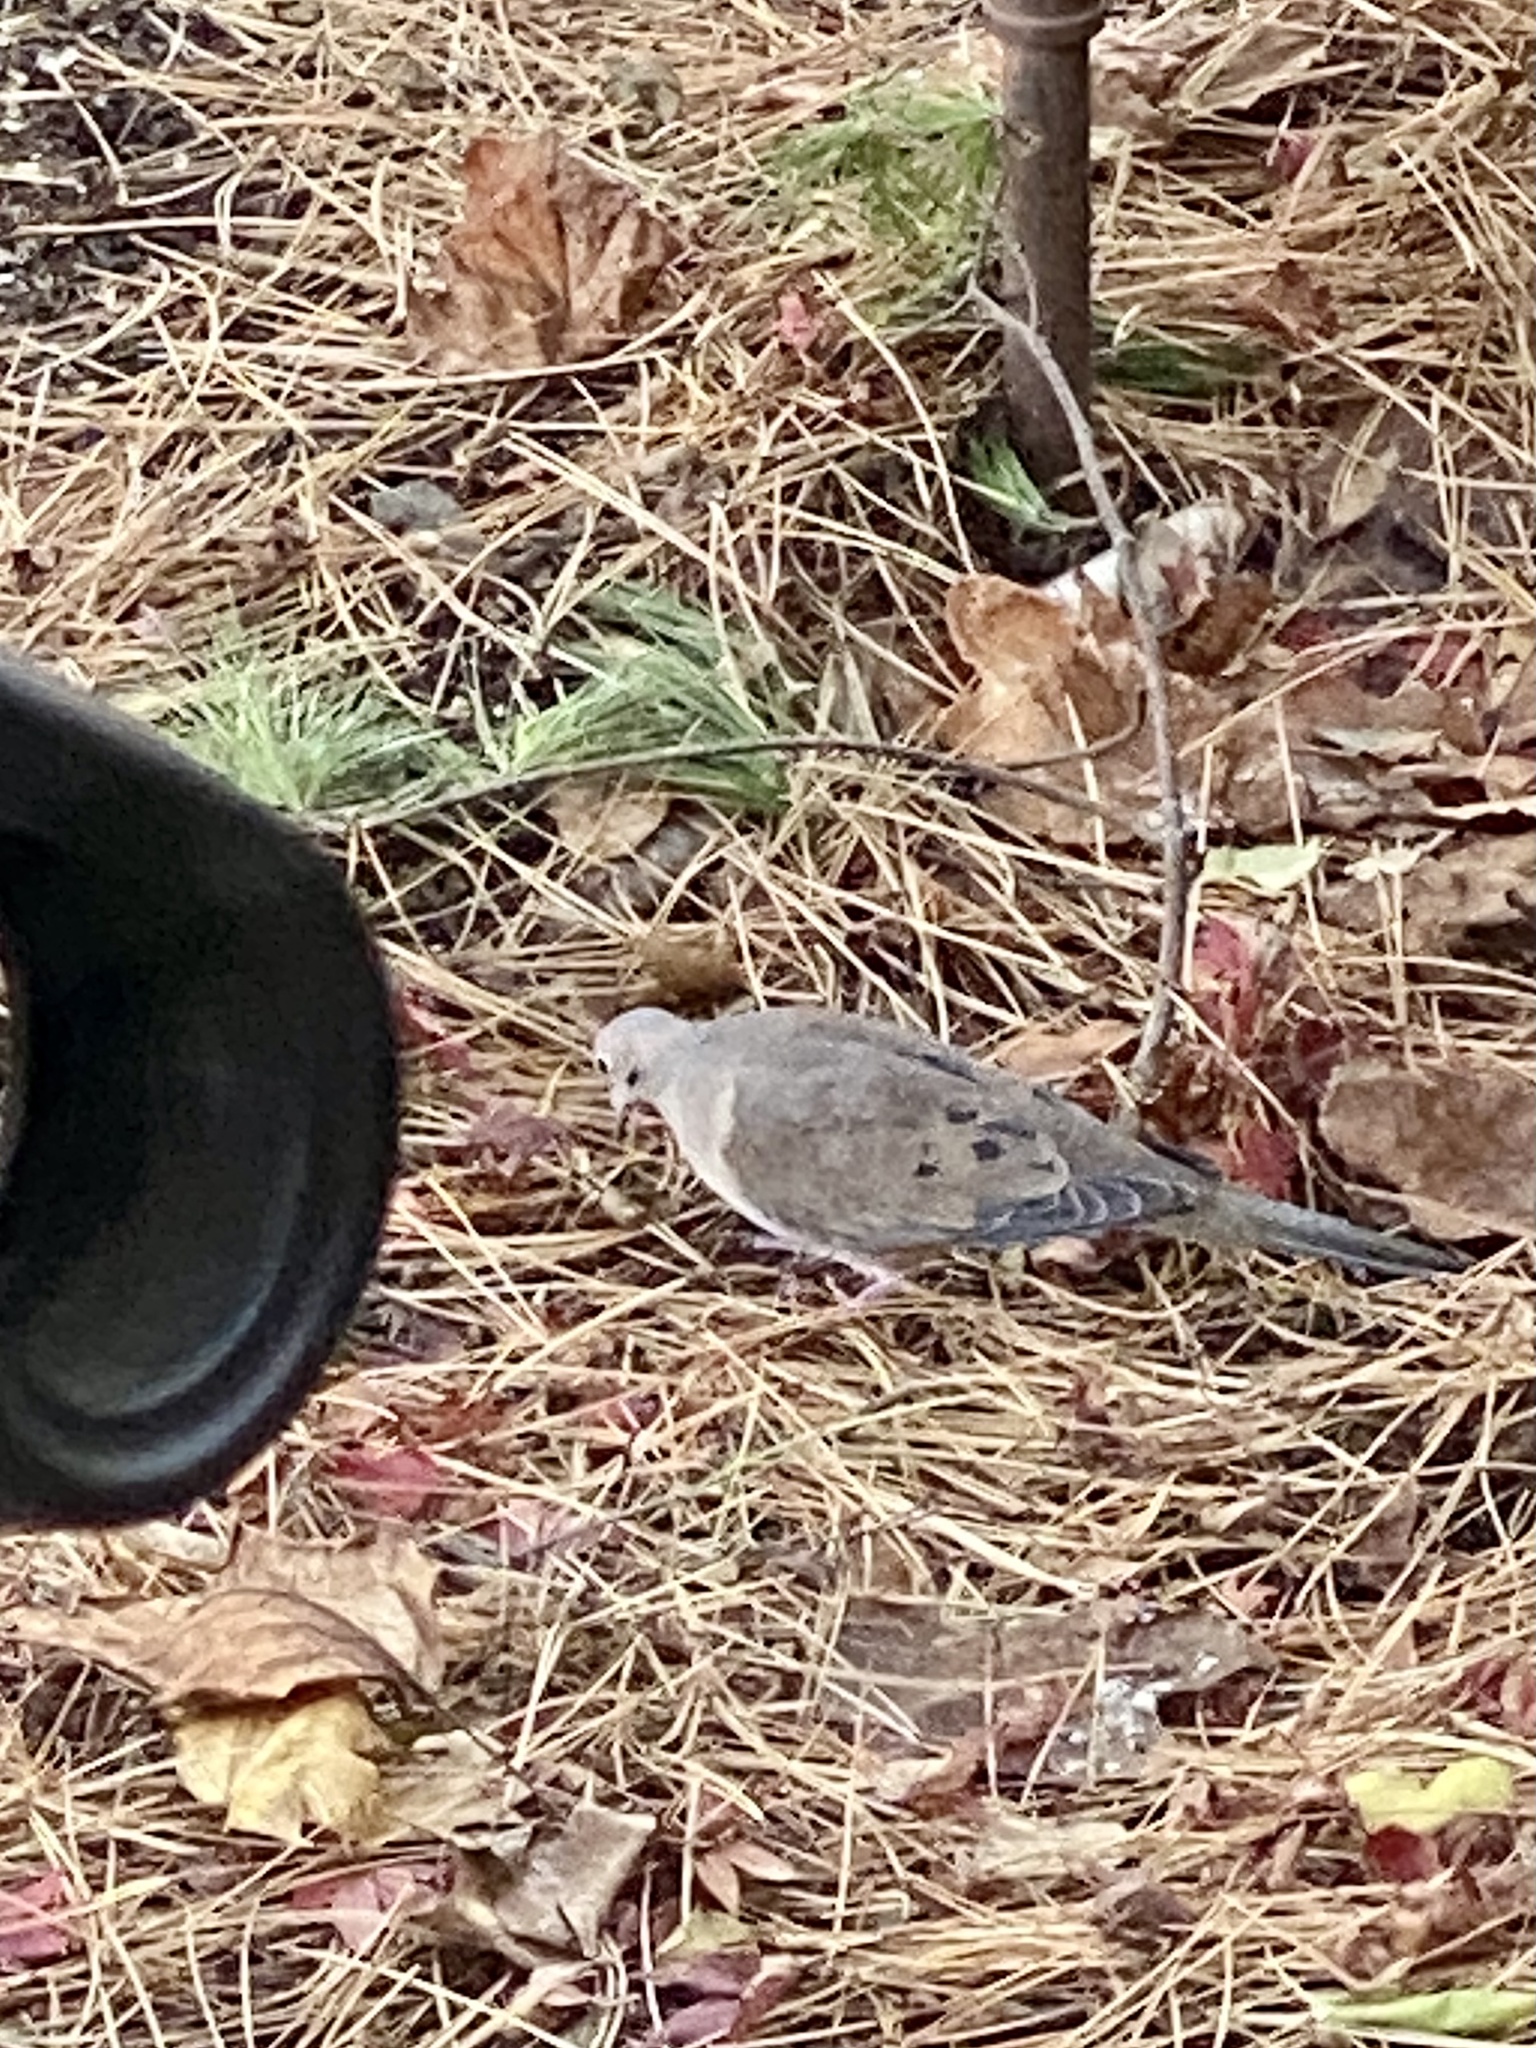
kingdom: Animalia
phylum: Chordata
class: Aves
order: Columbiformes
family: Columbidae
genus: Zenaida
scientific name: Zenaida macroura
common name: Mourning dove
